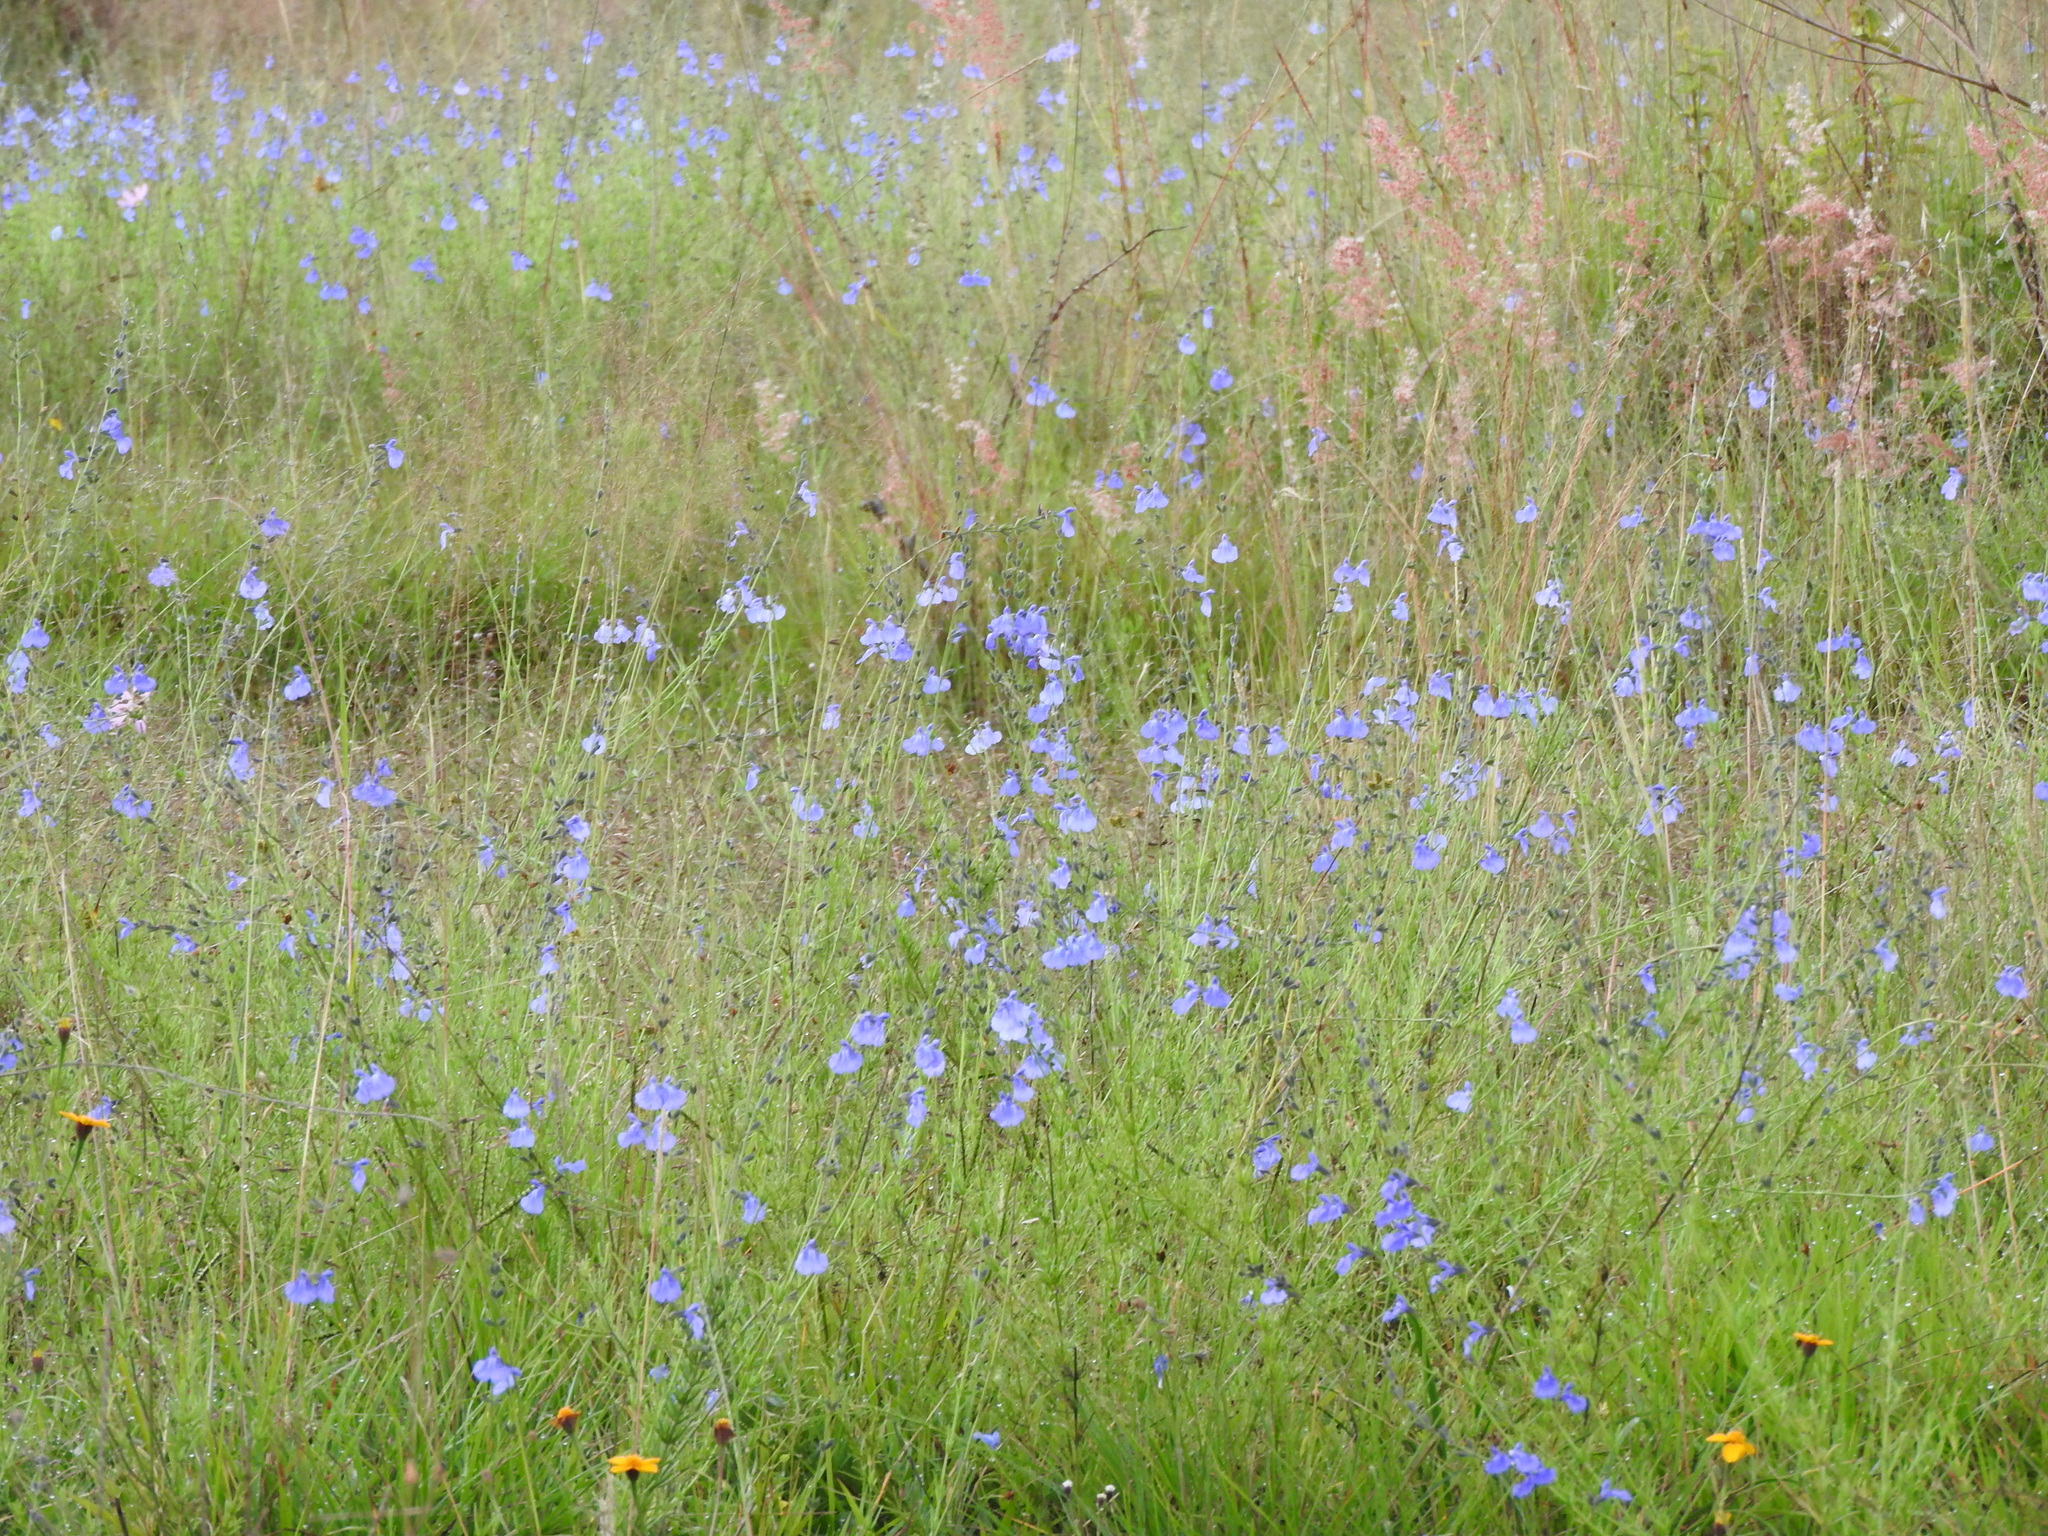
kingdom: Plantae
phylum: Tracheophyta
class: Magnoliopsida
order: Lamiales
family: Lamiaceae
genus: Salvia
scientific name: Salvia reptans
